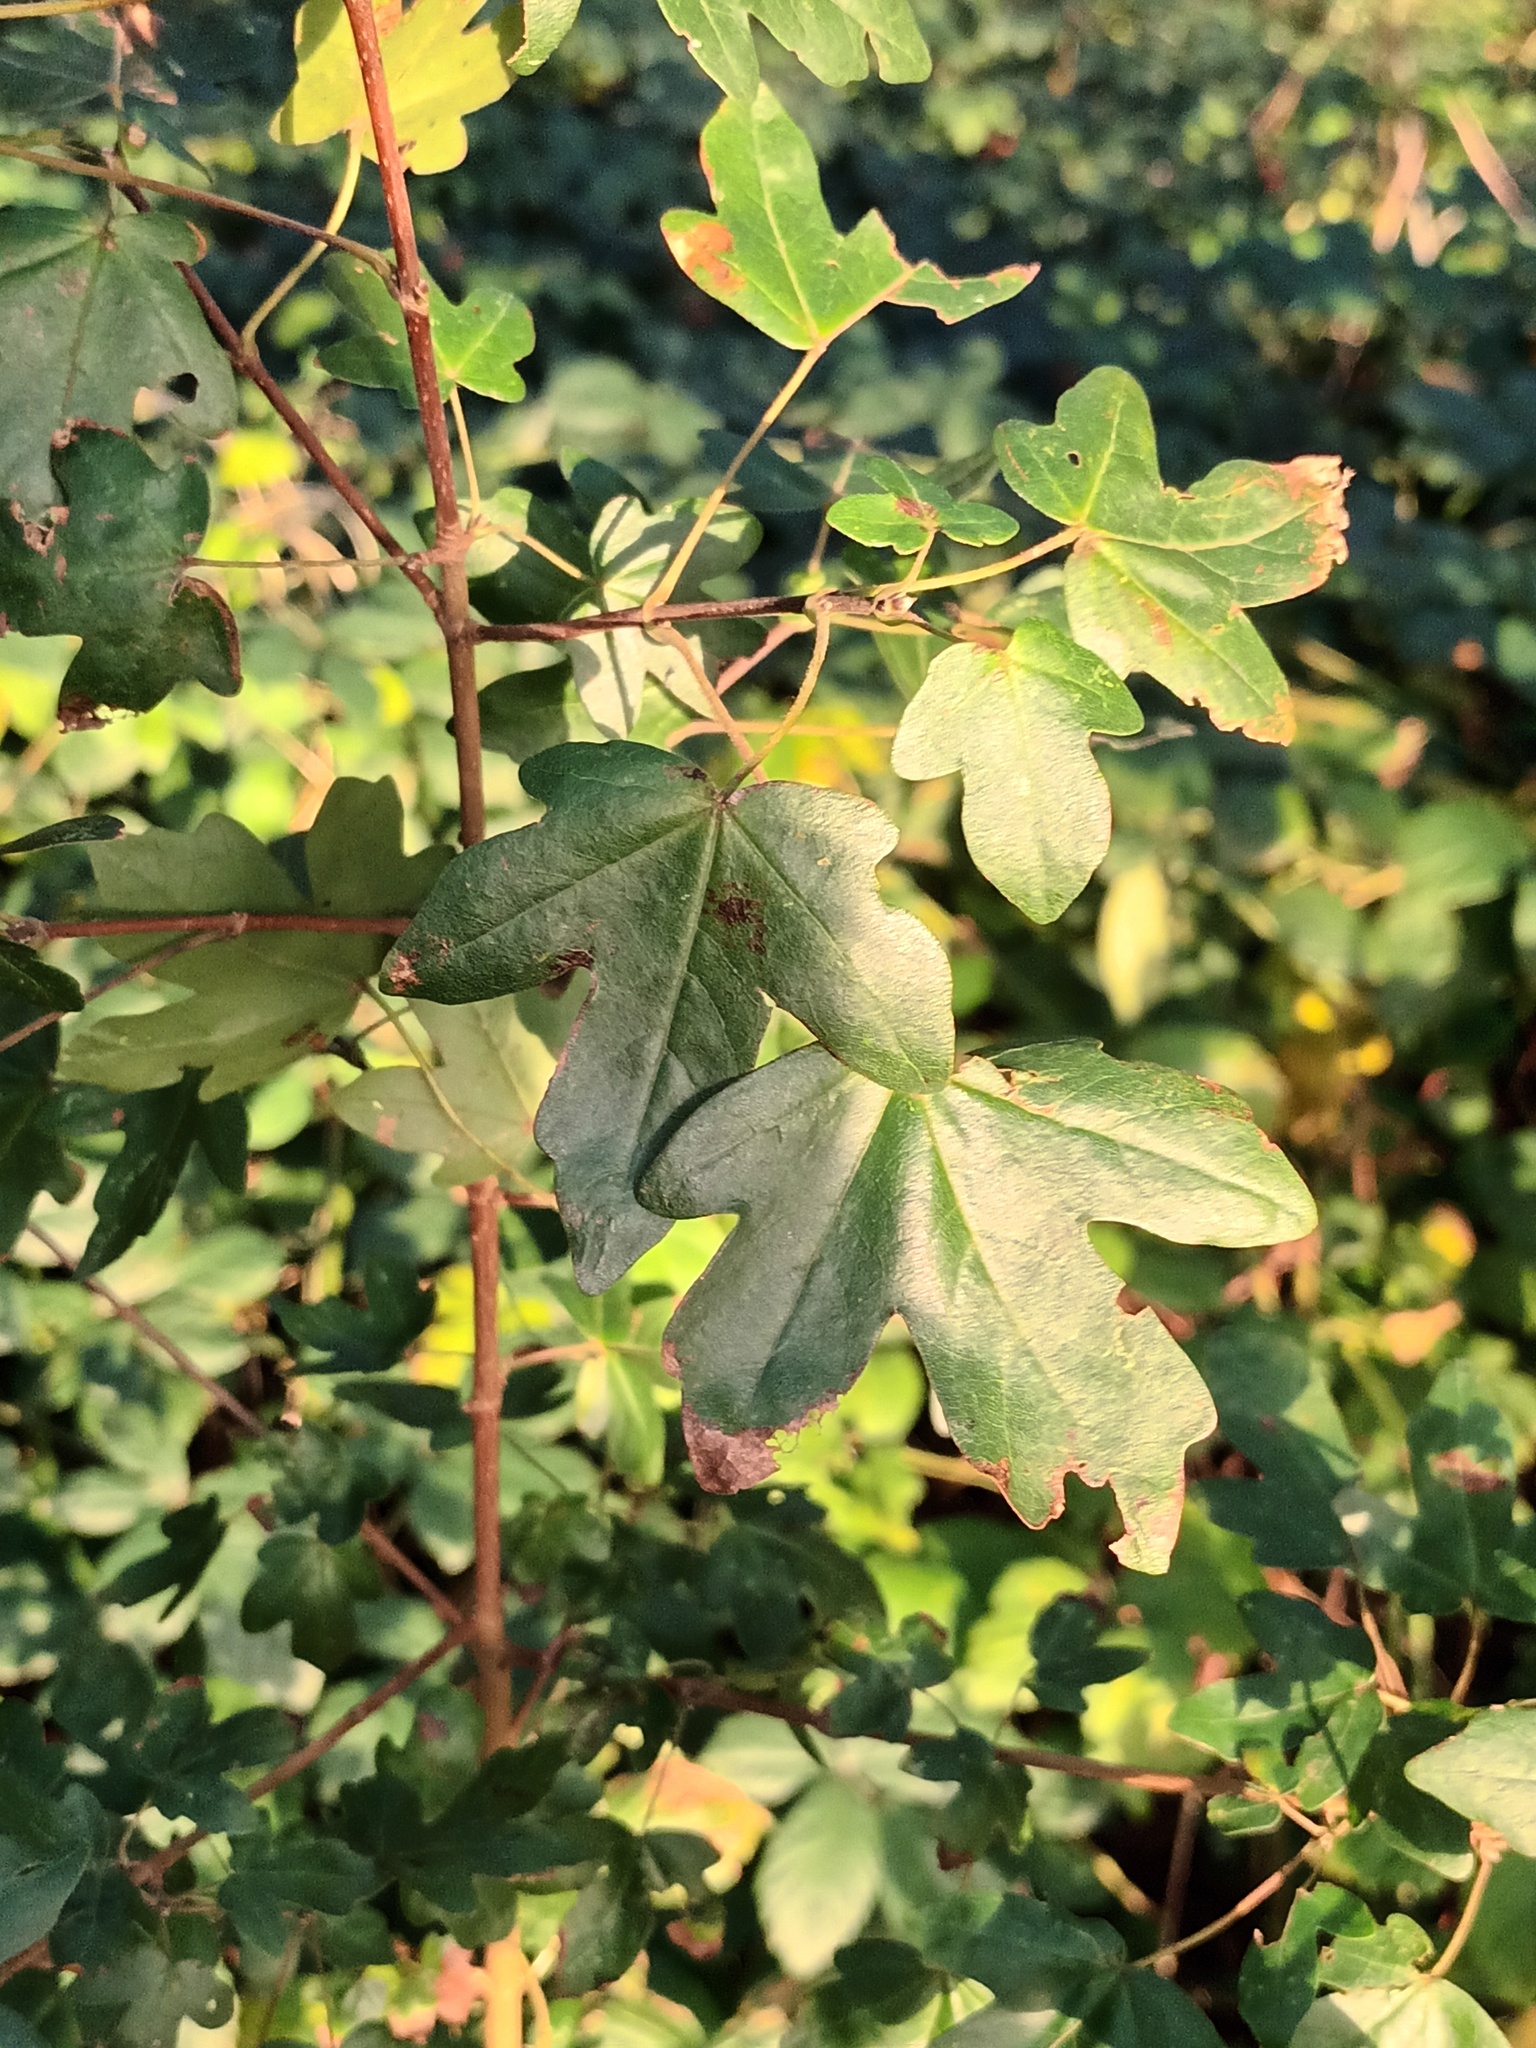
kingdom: Plantae
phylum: Tracheophyta
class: Magnoliopsida
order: Sapindales
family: Sapindaceae
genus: Acer
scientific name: Acer campestre
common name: Field maple
